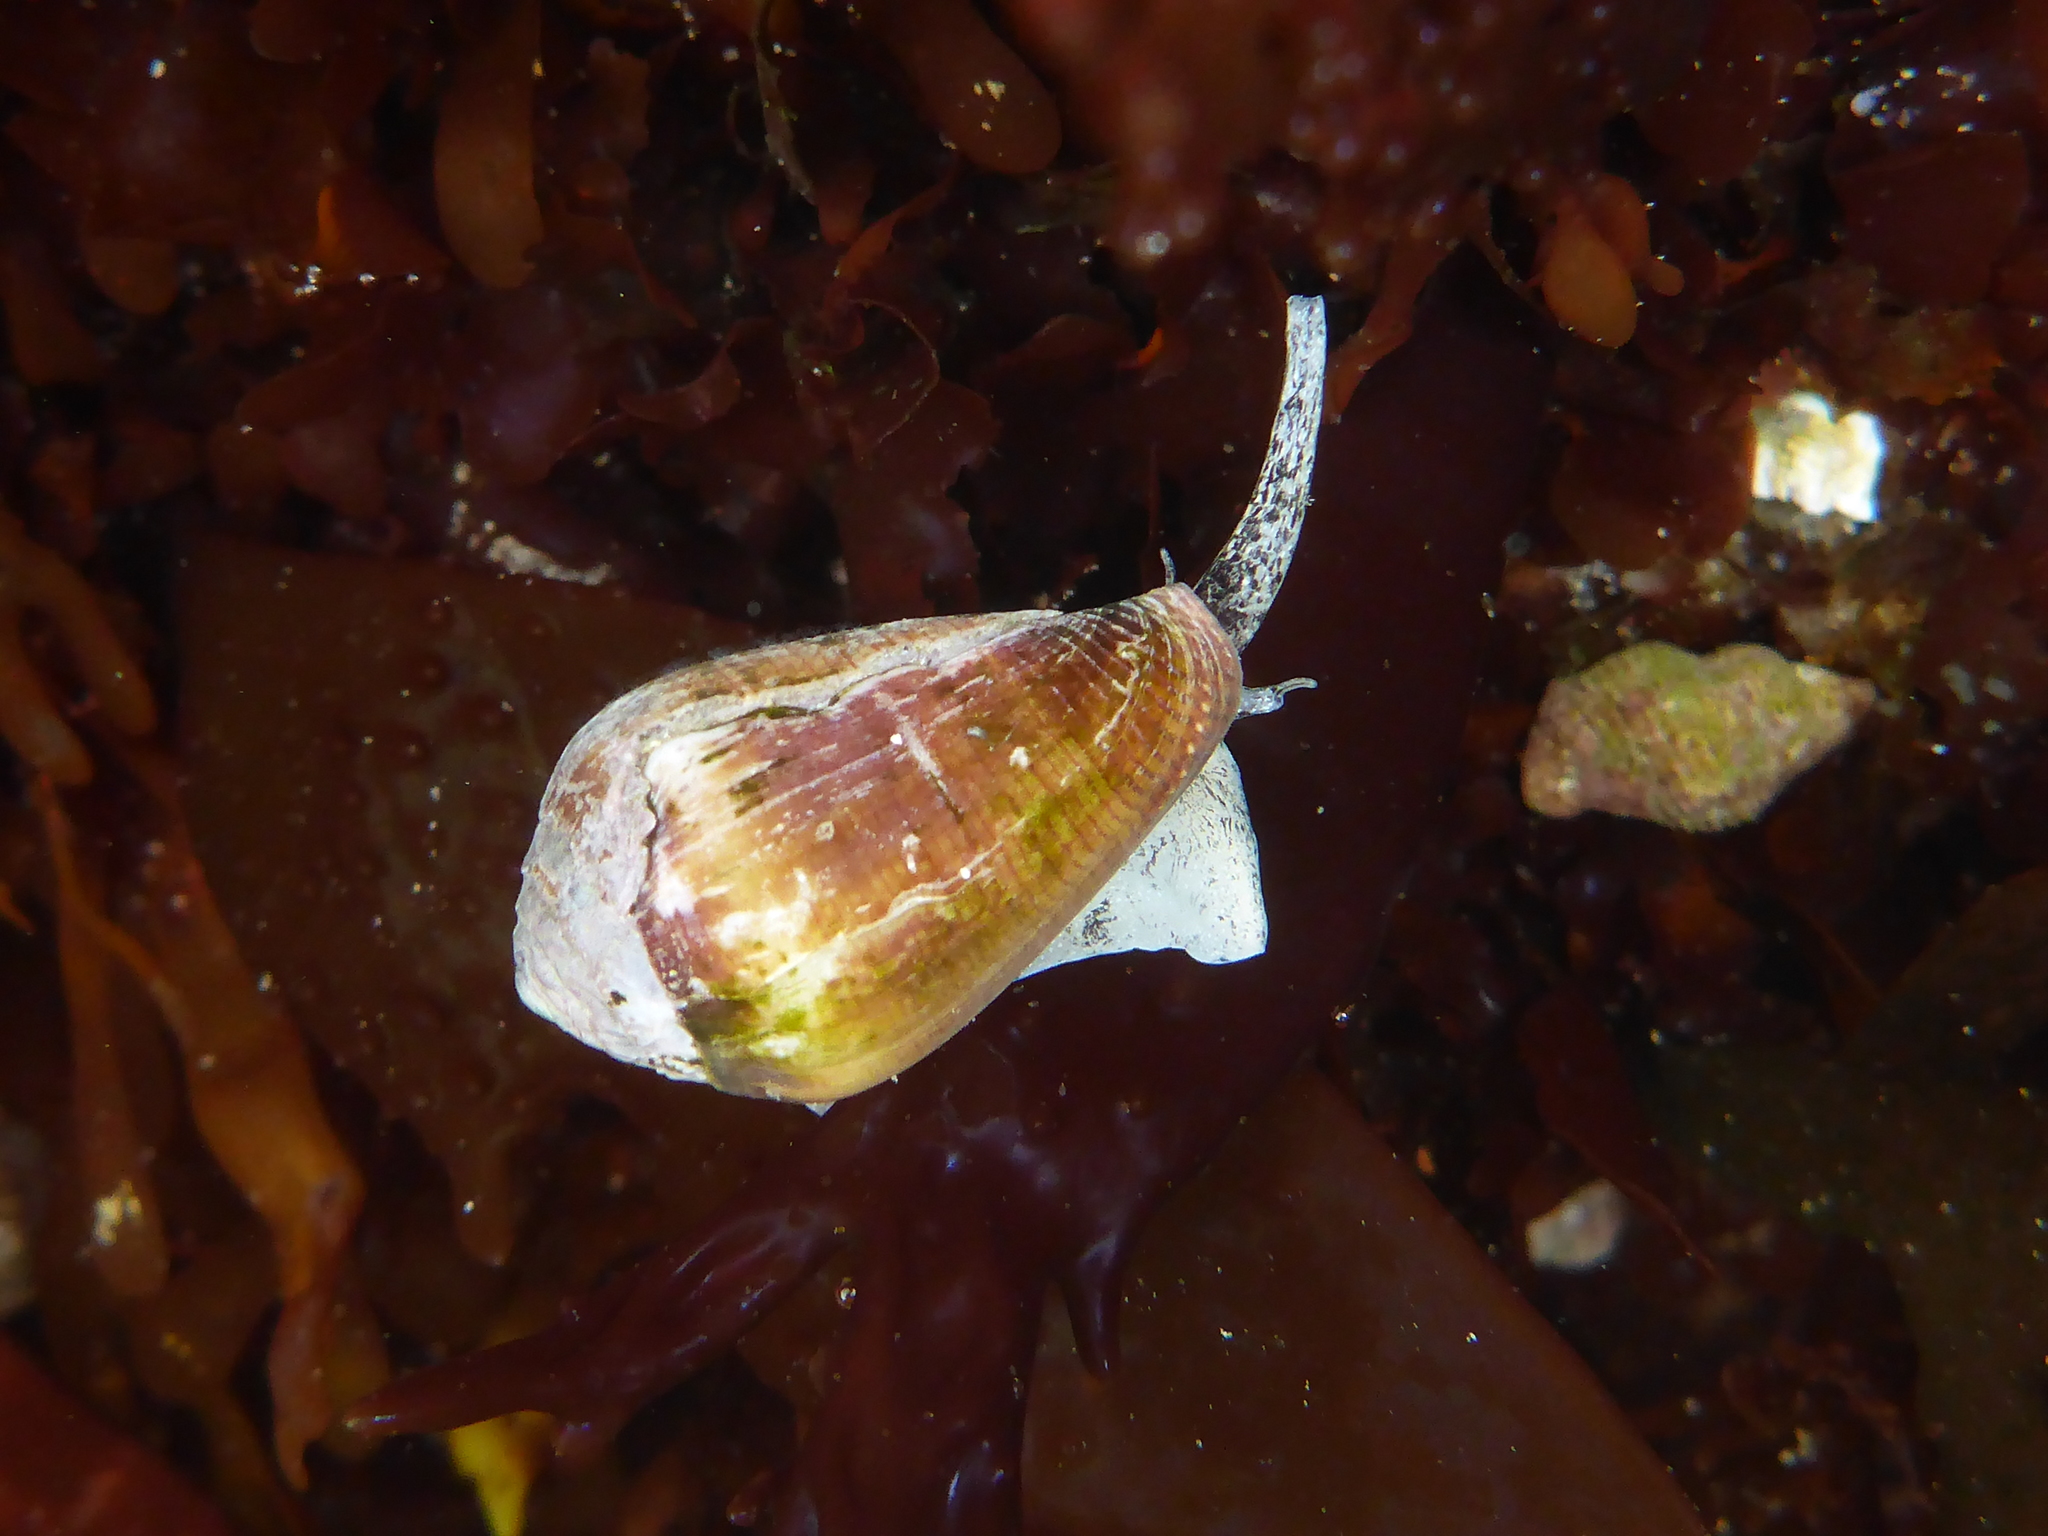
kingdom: Animalia
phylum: Mollusca
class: Gastropoda
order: Neogastropoda
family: Conidae
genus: Californiconus
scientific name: Californiconus californicus
